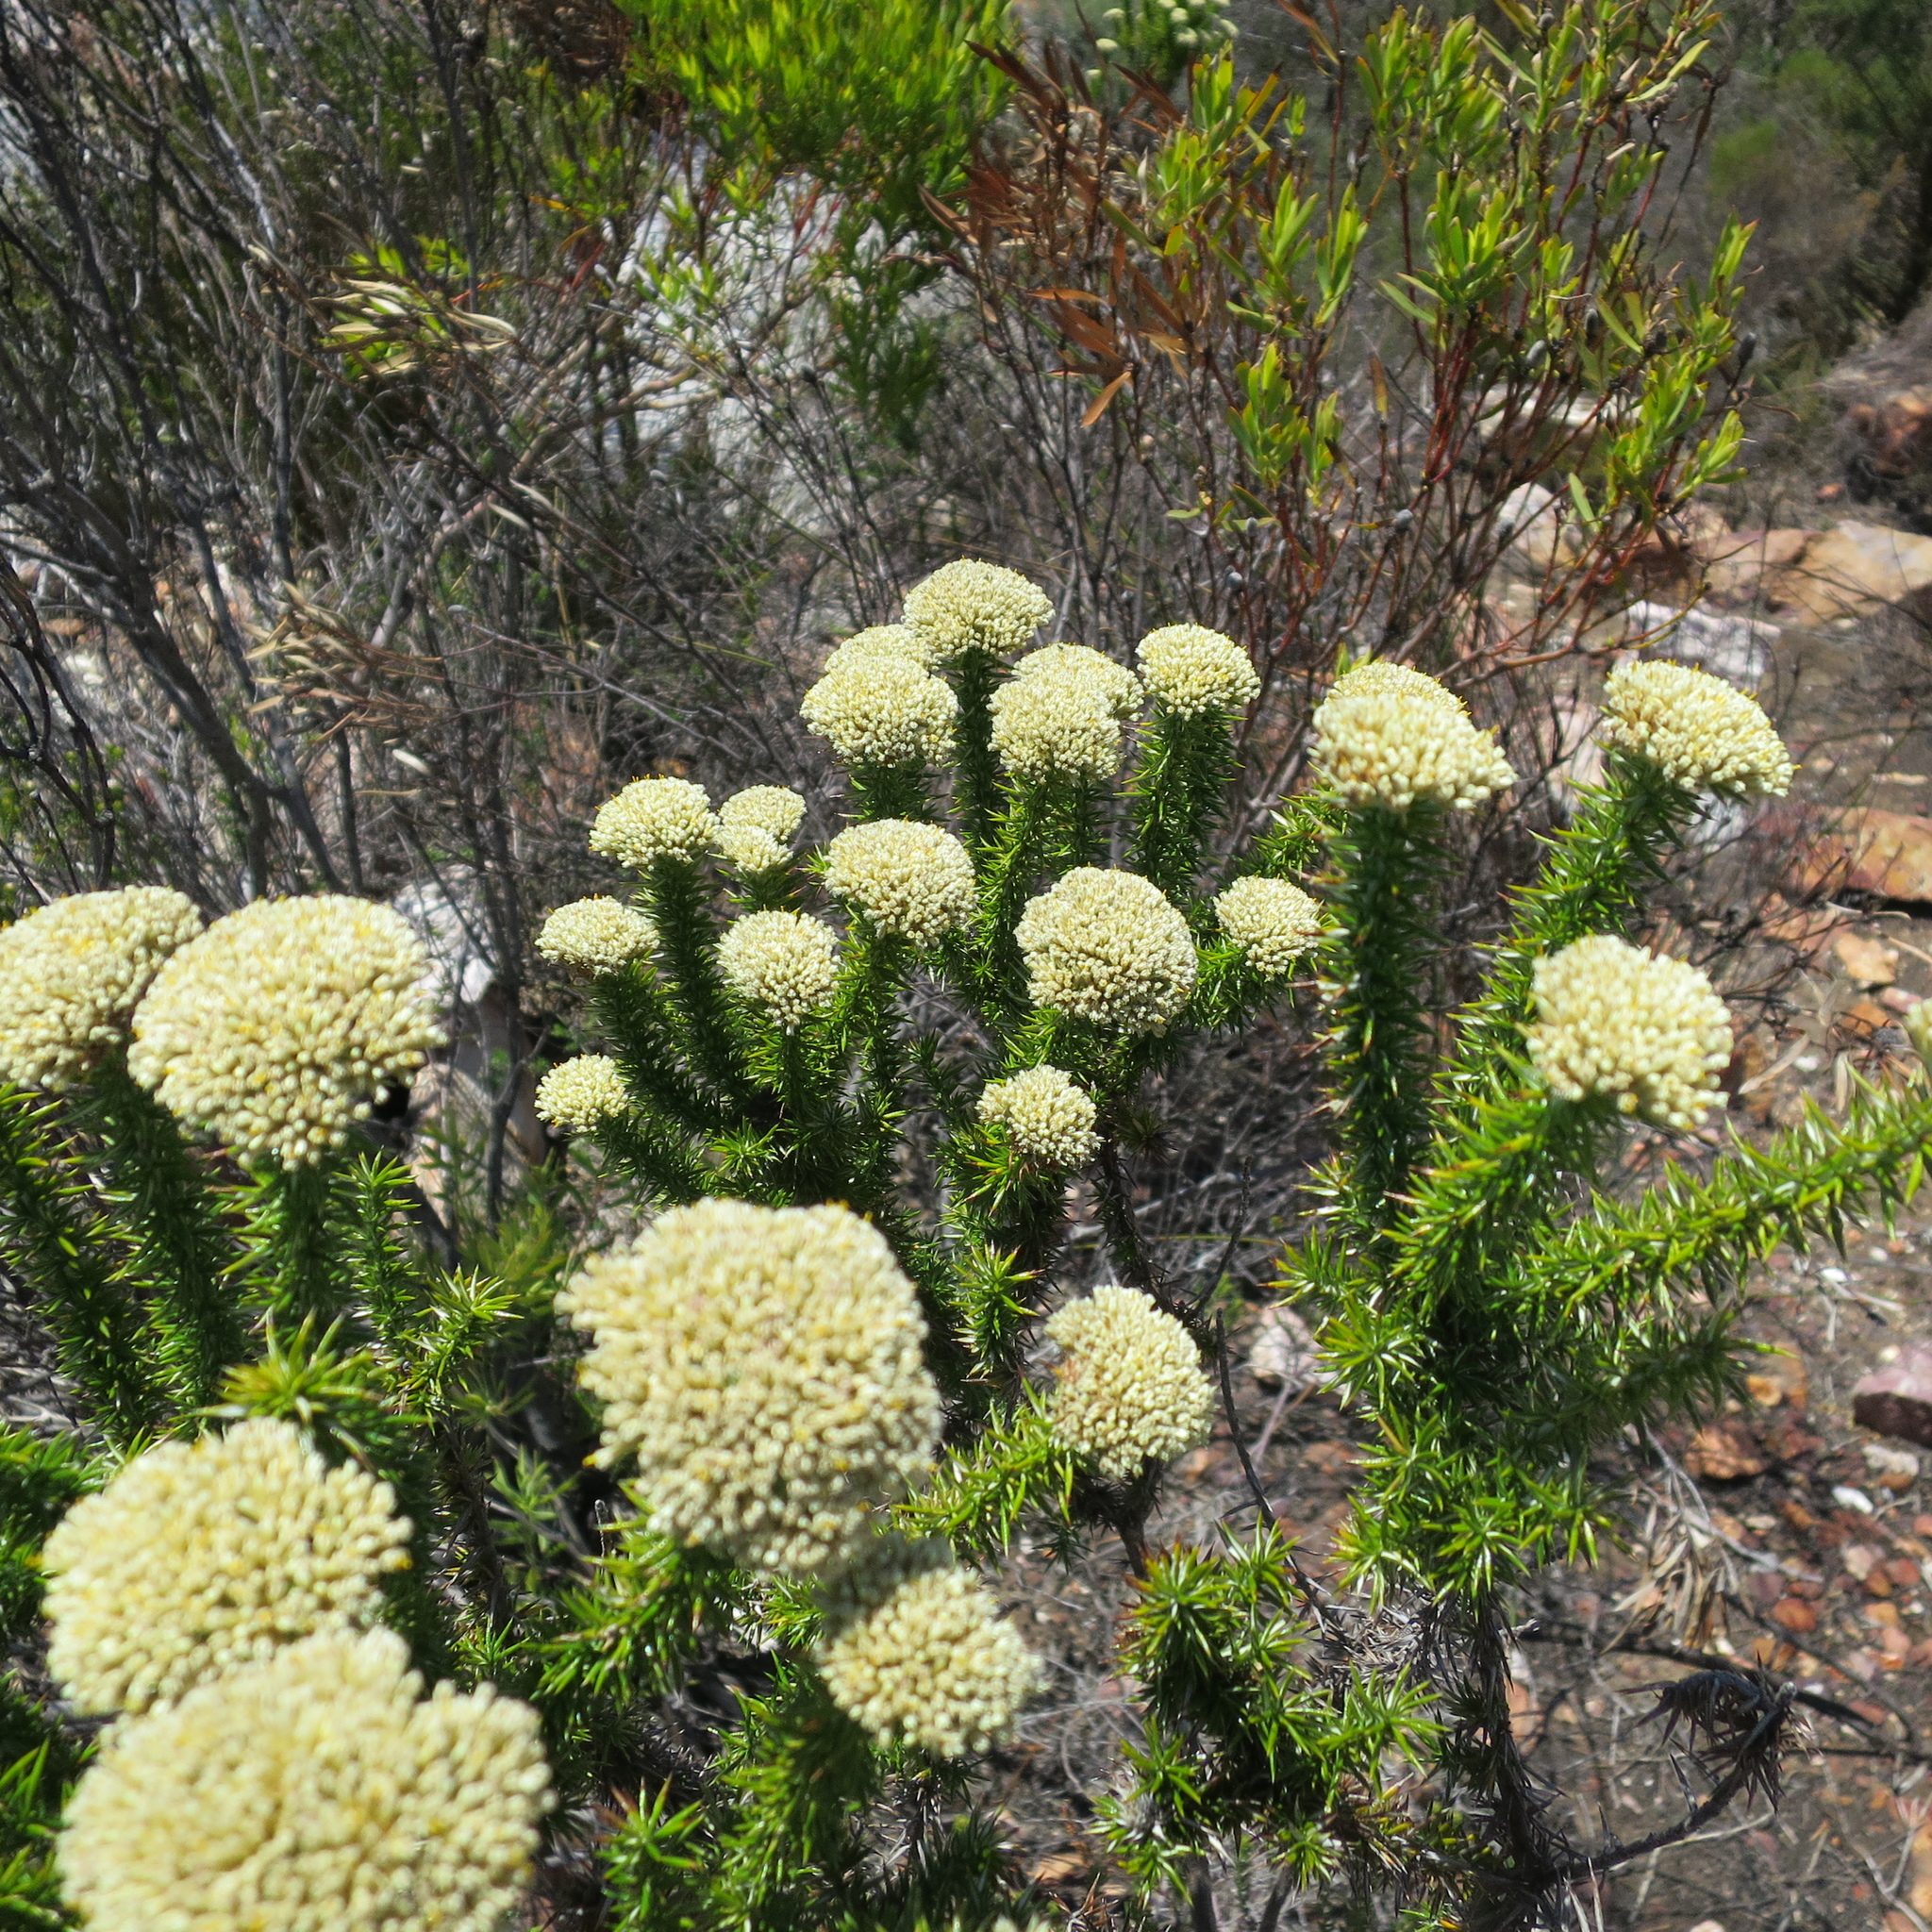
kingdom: Plantae
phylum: Tracheophyta
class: Magnoliopsida
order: Asterales
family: Asteraceae
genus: Metalasia
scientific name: Metalasia trivialis
